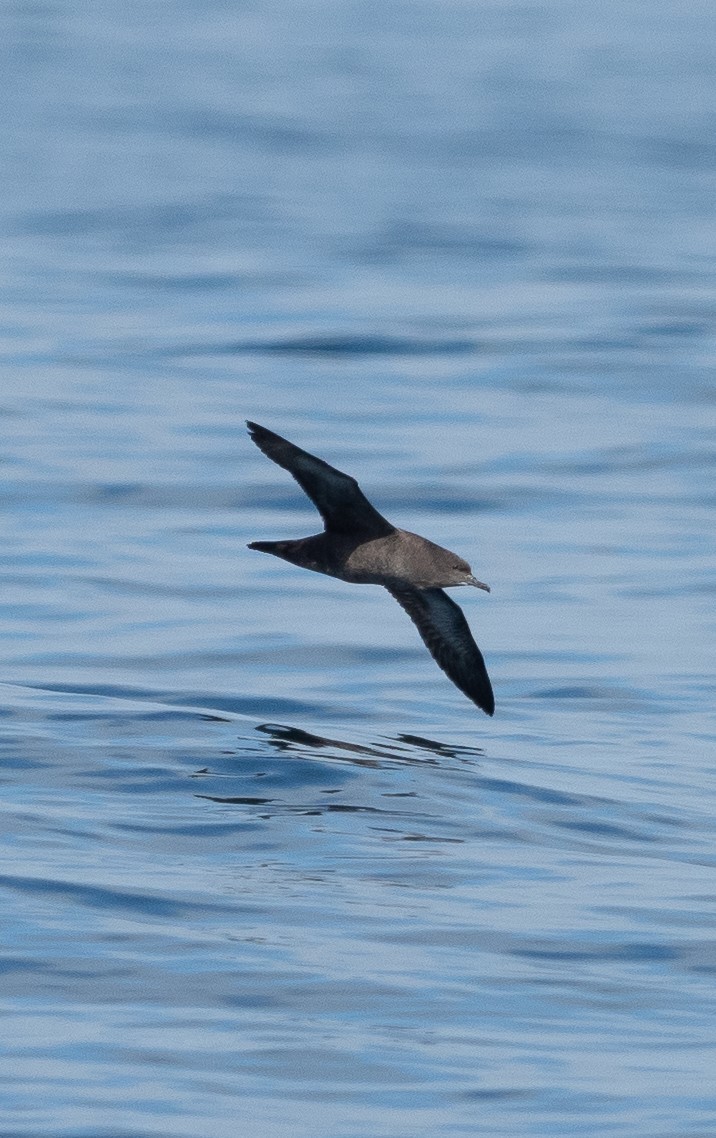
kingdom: Animalia
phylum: Chordata
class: Aves
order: Procellariiformes
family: Procellariidae
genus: Puffinus
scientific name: Puffinus griseus
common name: Sooty shearwater
